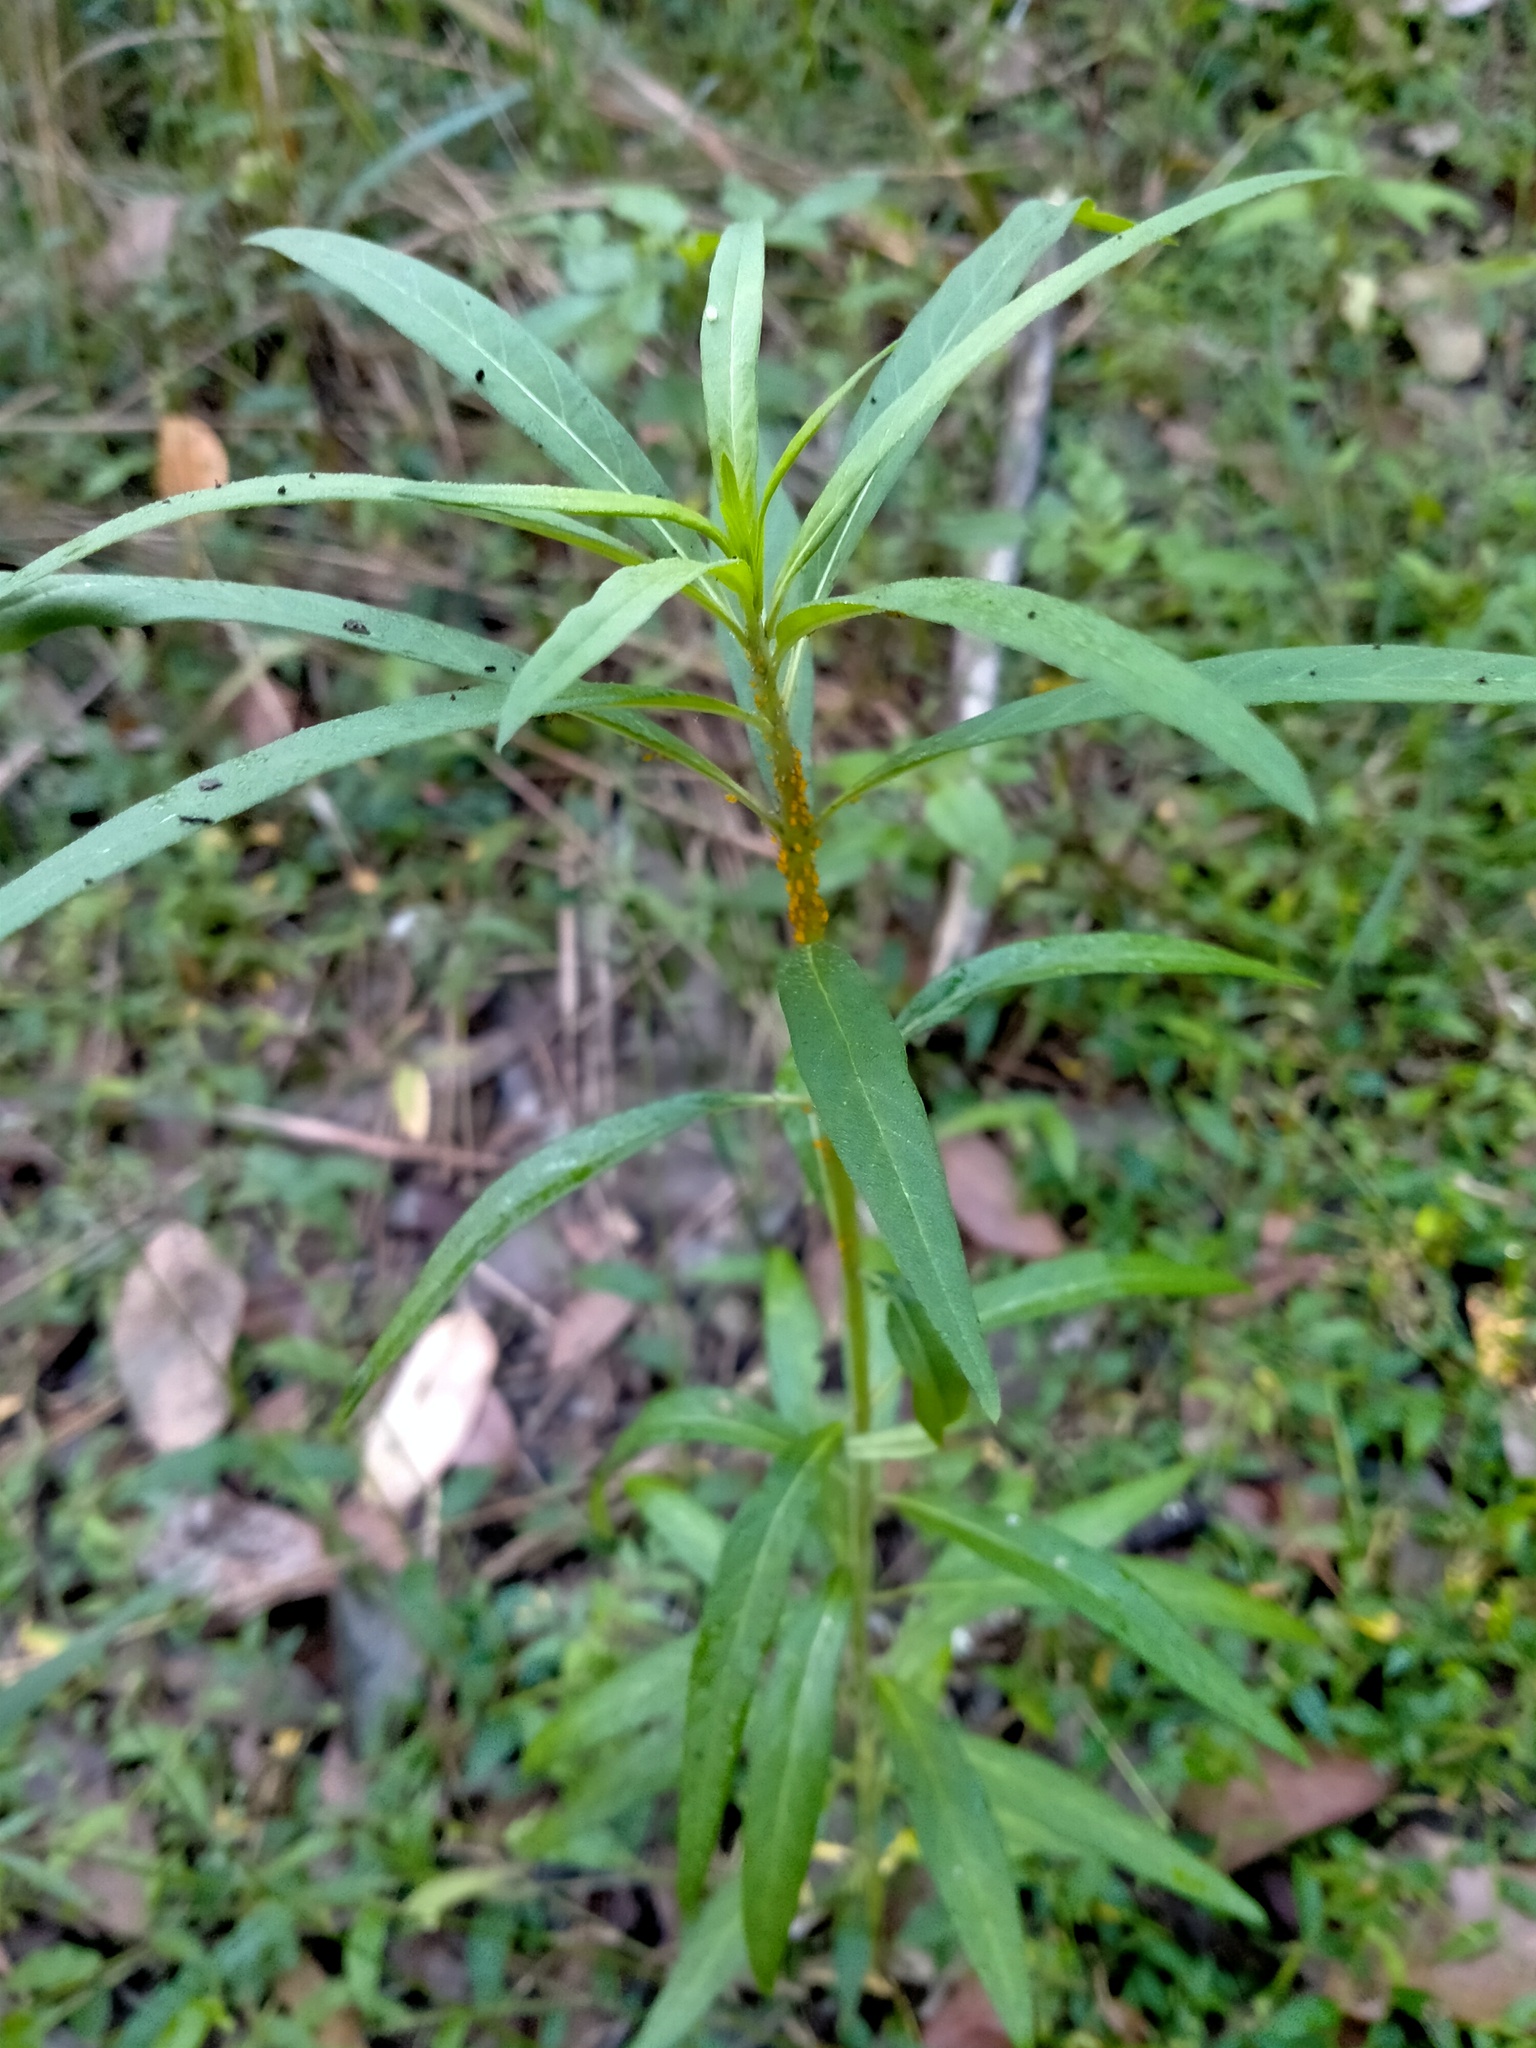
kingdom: Animalia
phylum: Arthropoda
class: Insecta
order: Hemiptera
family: Aphididae
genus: Aphis
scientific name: Aphis nerii
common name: Oleander aphid
